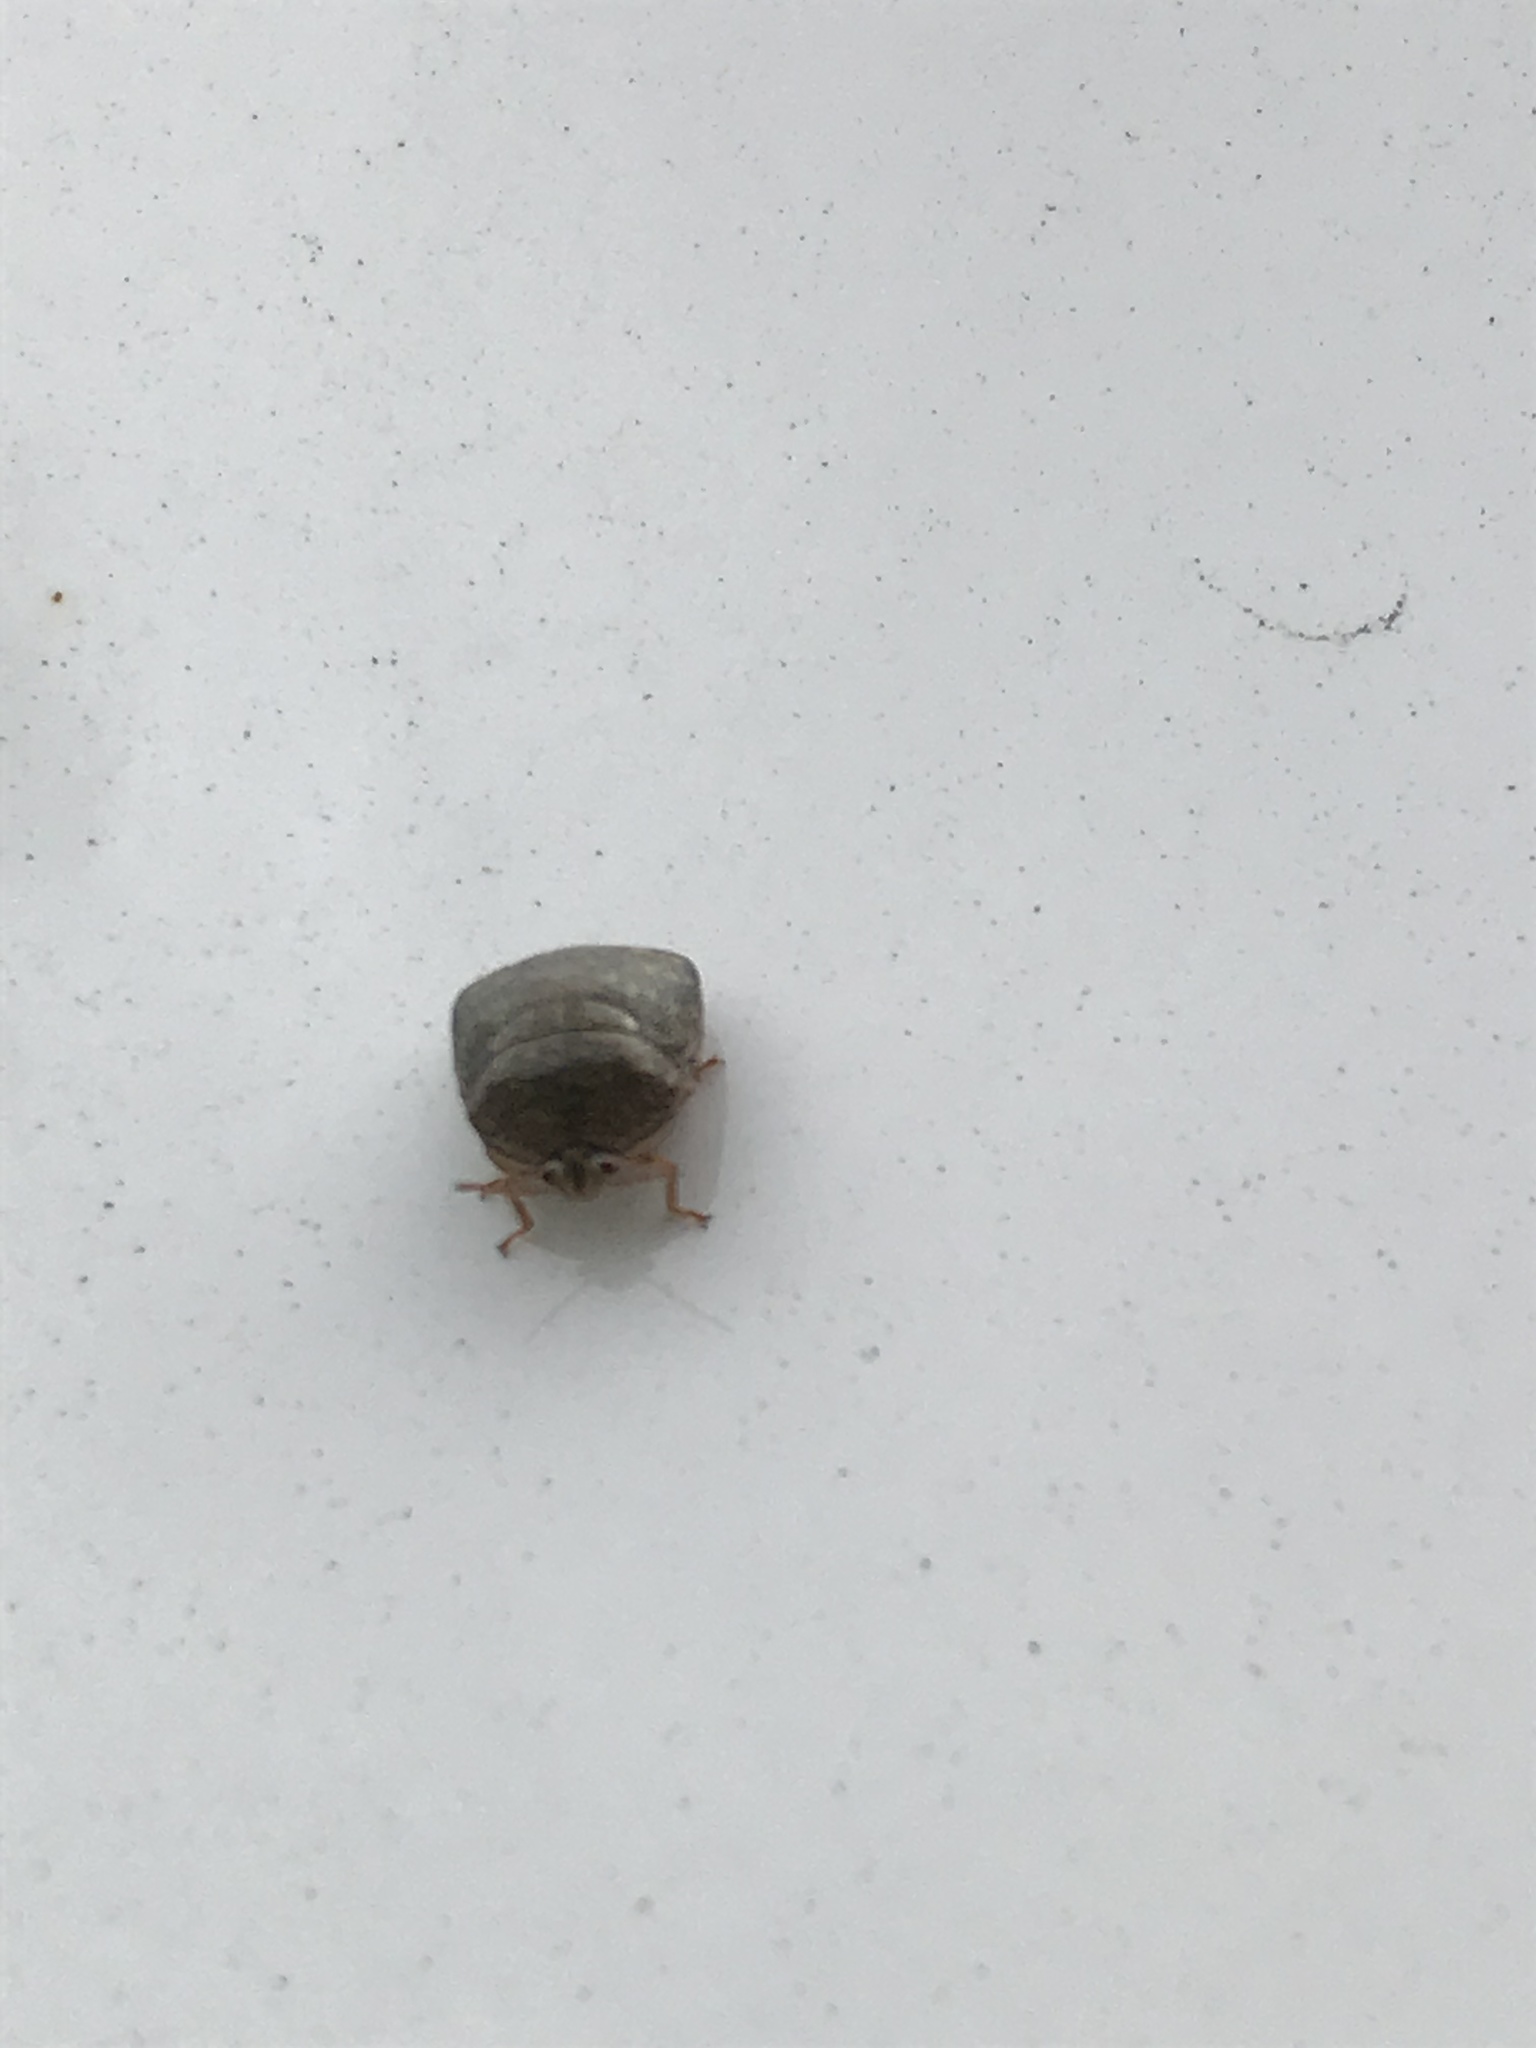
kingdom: Animalia
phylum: Arthropoda
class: Insecta
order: Hemiptera
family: Plataspidae
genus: Megacopta
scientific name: Megacopta cribraria
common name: Bean plataspid
